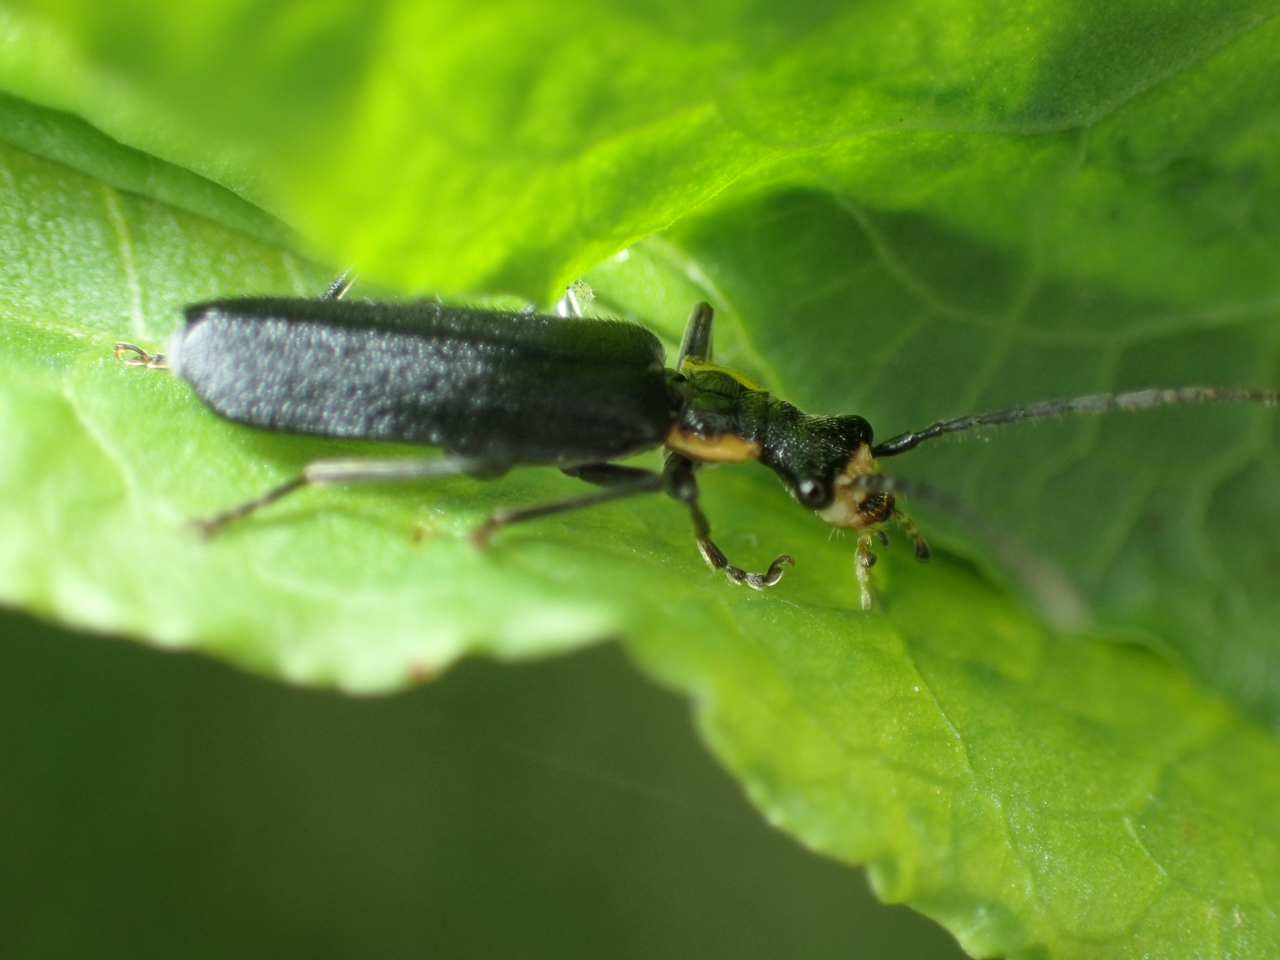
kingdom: Animalia
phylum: Arthropoda
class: Insecta
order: Coleoptera
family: Cantharidae
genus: Podabrus
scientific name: Podabrus rugosulus
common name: Wrinkled soldier beetle
